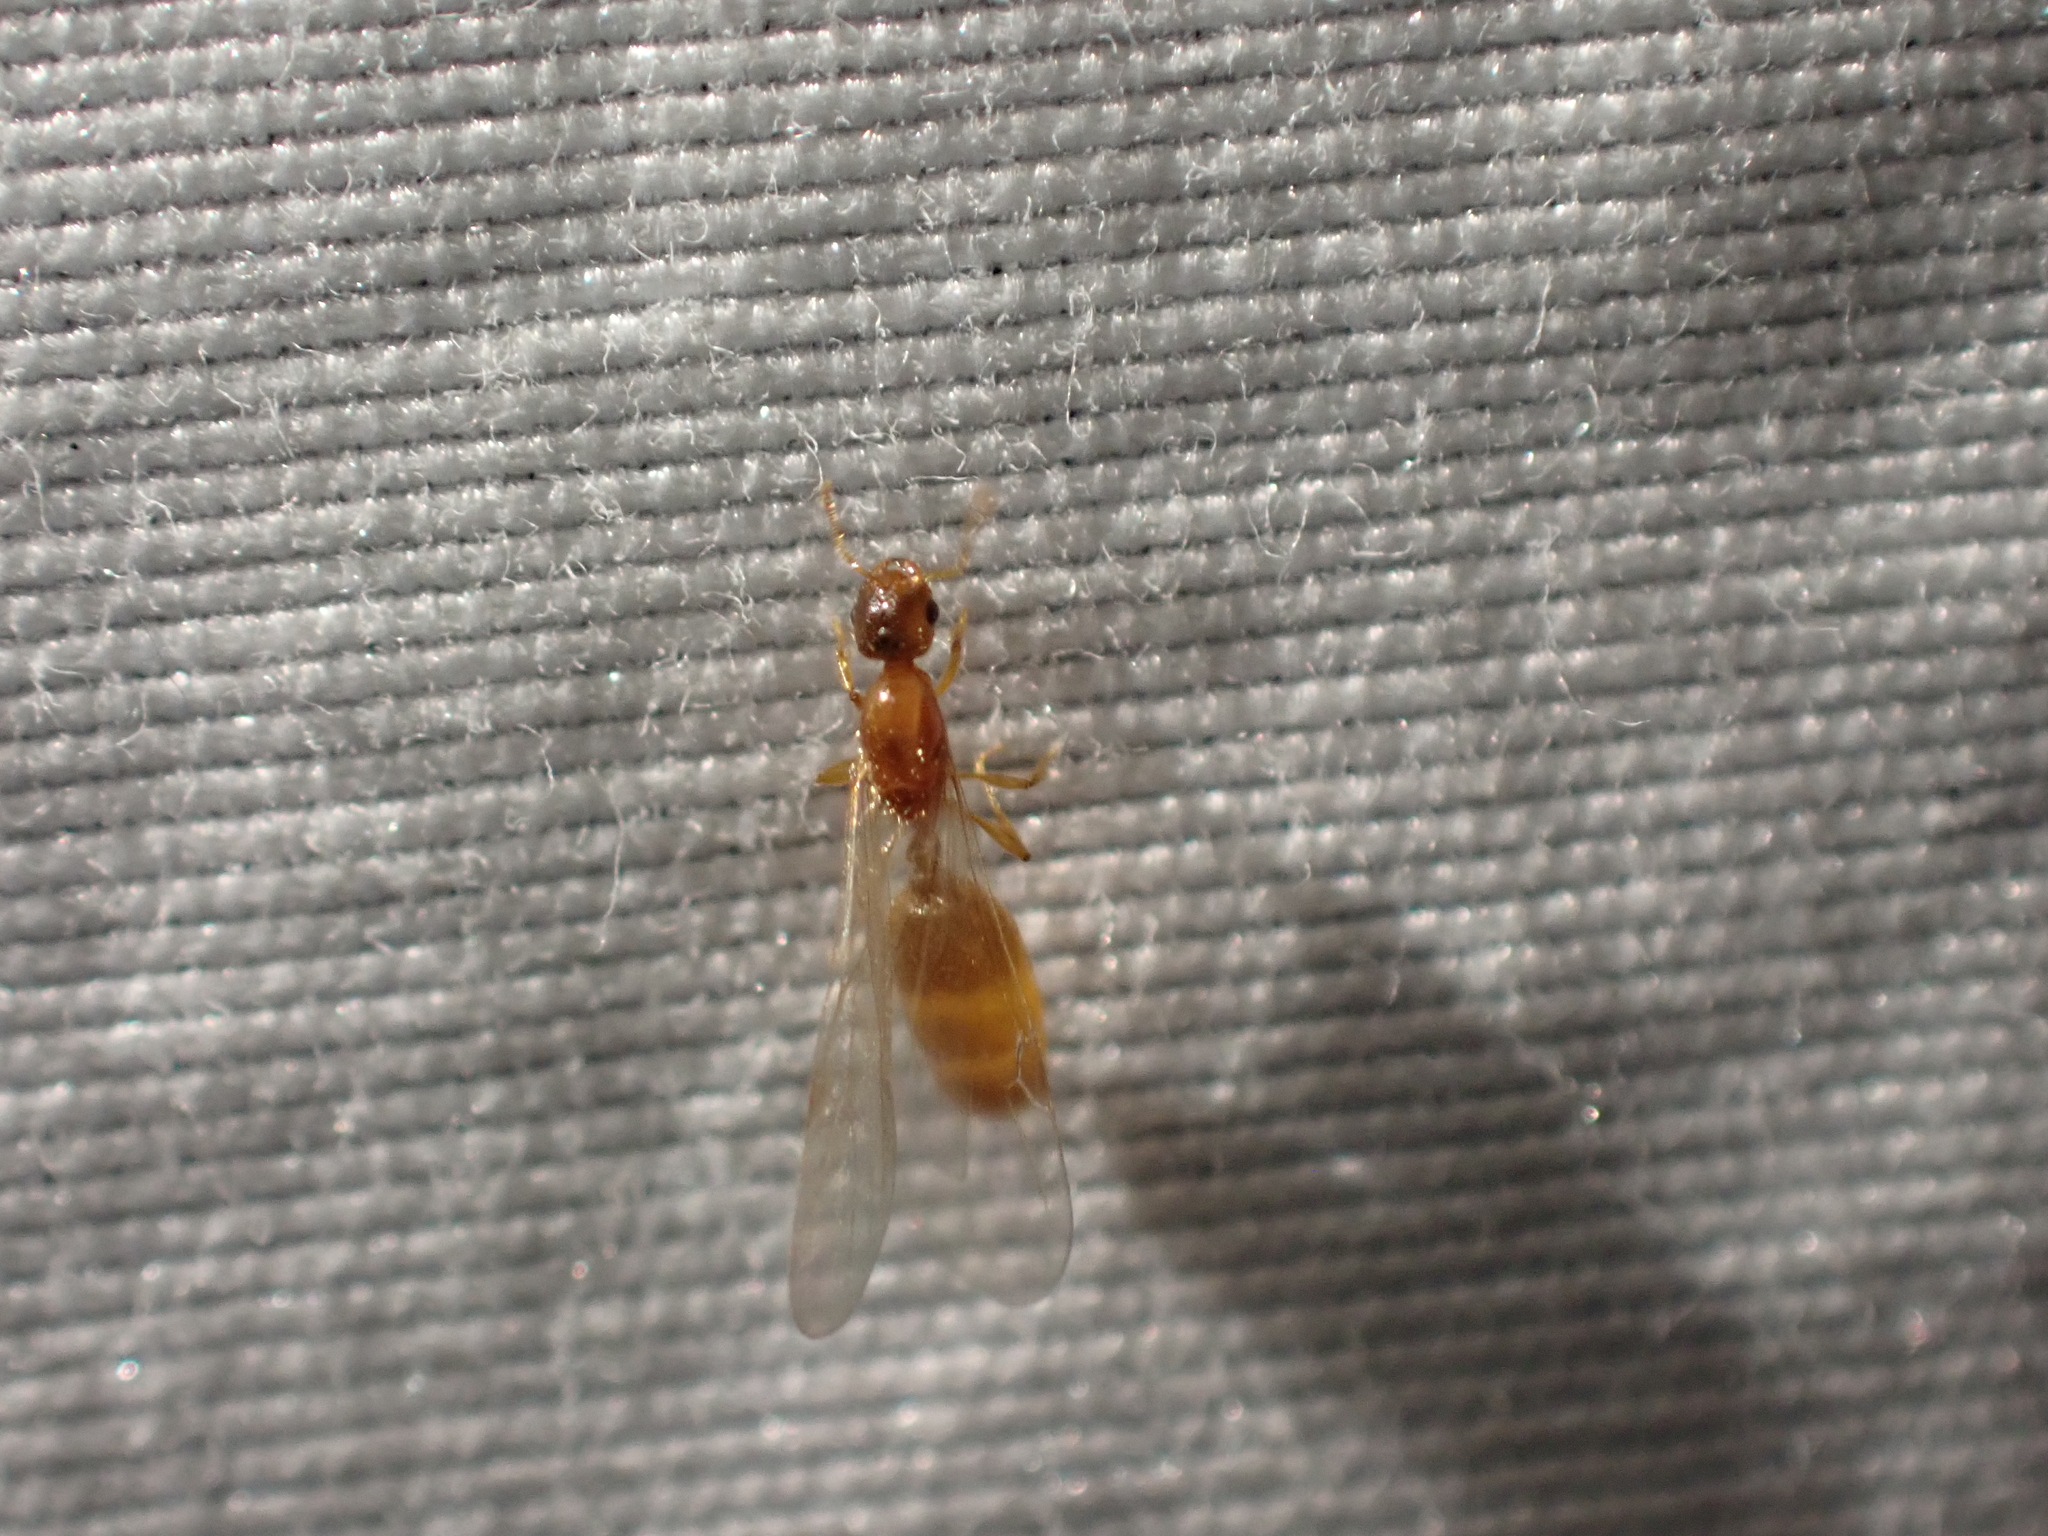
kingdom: Animalia
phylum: Arthropoda
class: Insecta
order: Hymenoptera
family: Formicidae
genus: Solenopsis
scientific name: Solenopsis molesta
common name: Thief ant
